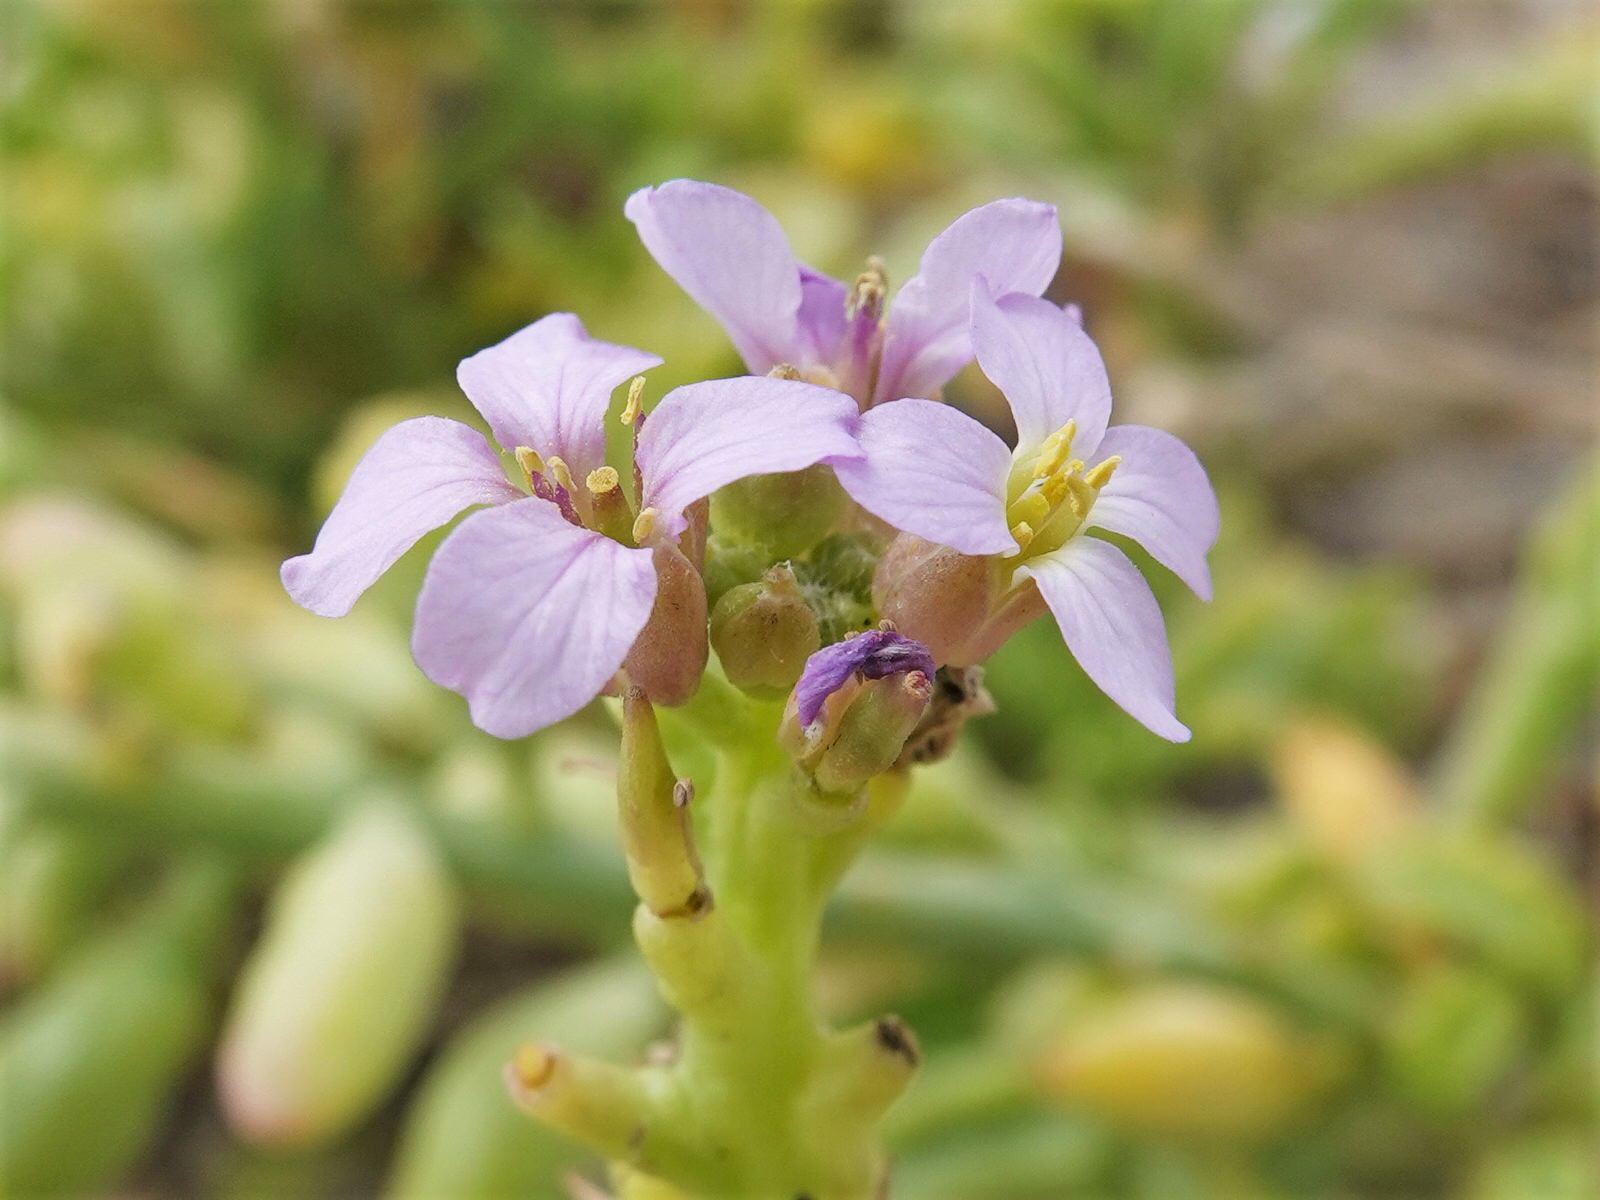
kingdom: Plantae
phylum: Tracheophyta
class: Magnoliopsida
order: Brassicales
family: Brassicaceae
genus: Cakile
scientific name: Cakile edentula
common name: American sea rocket
